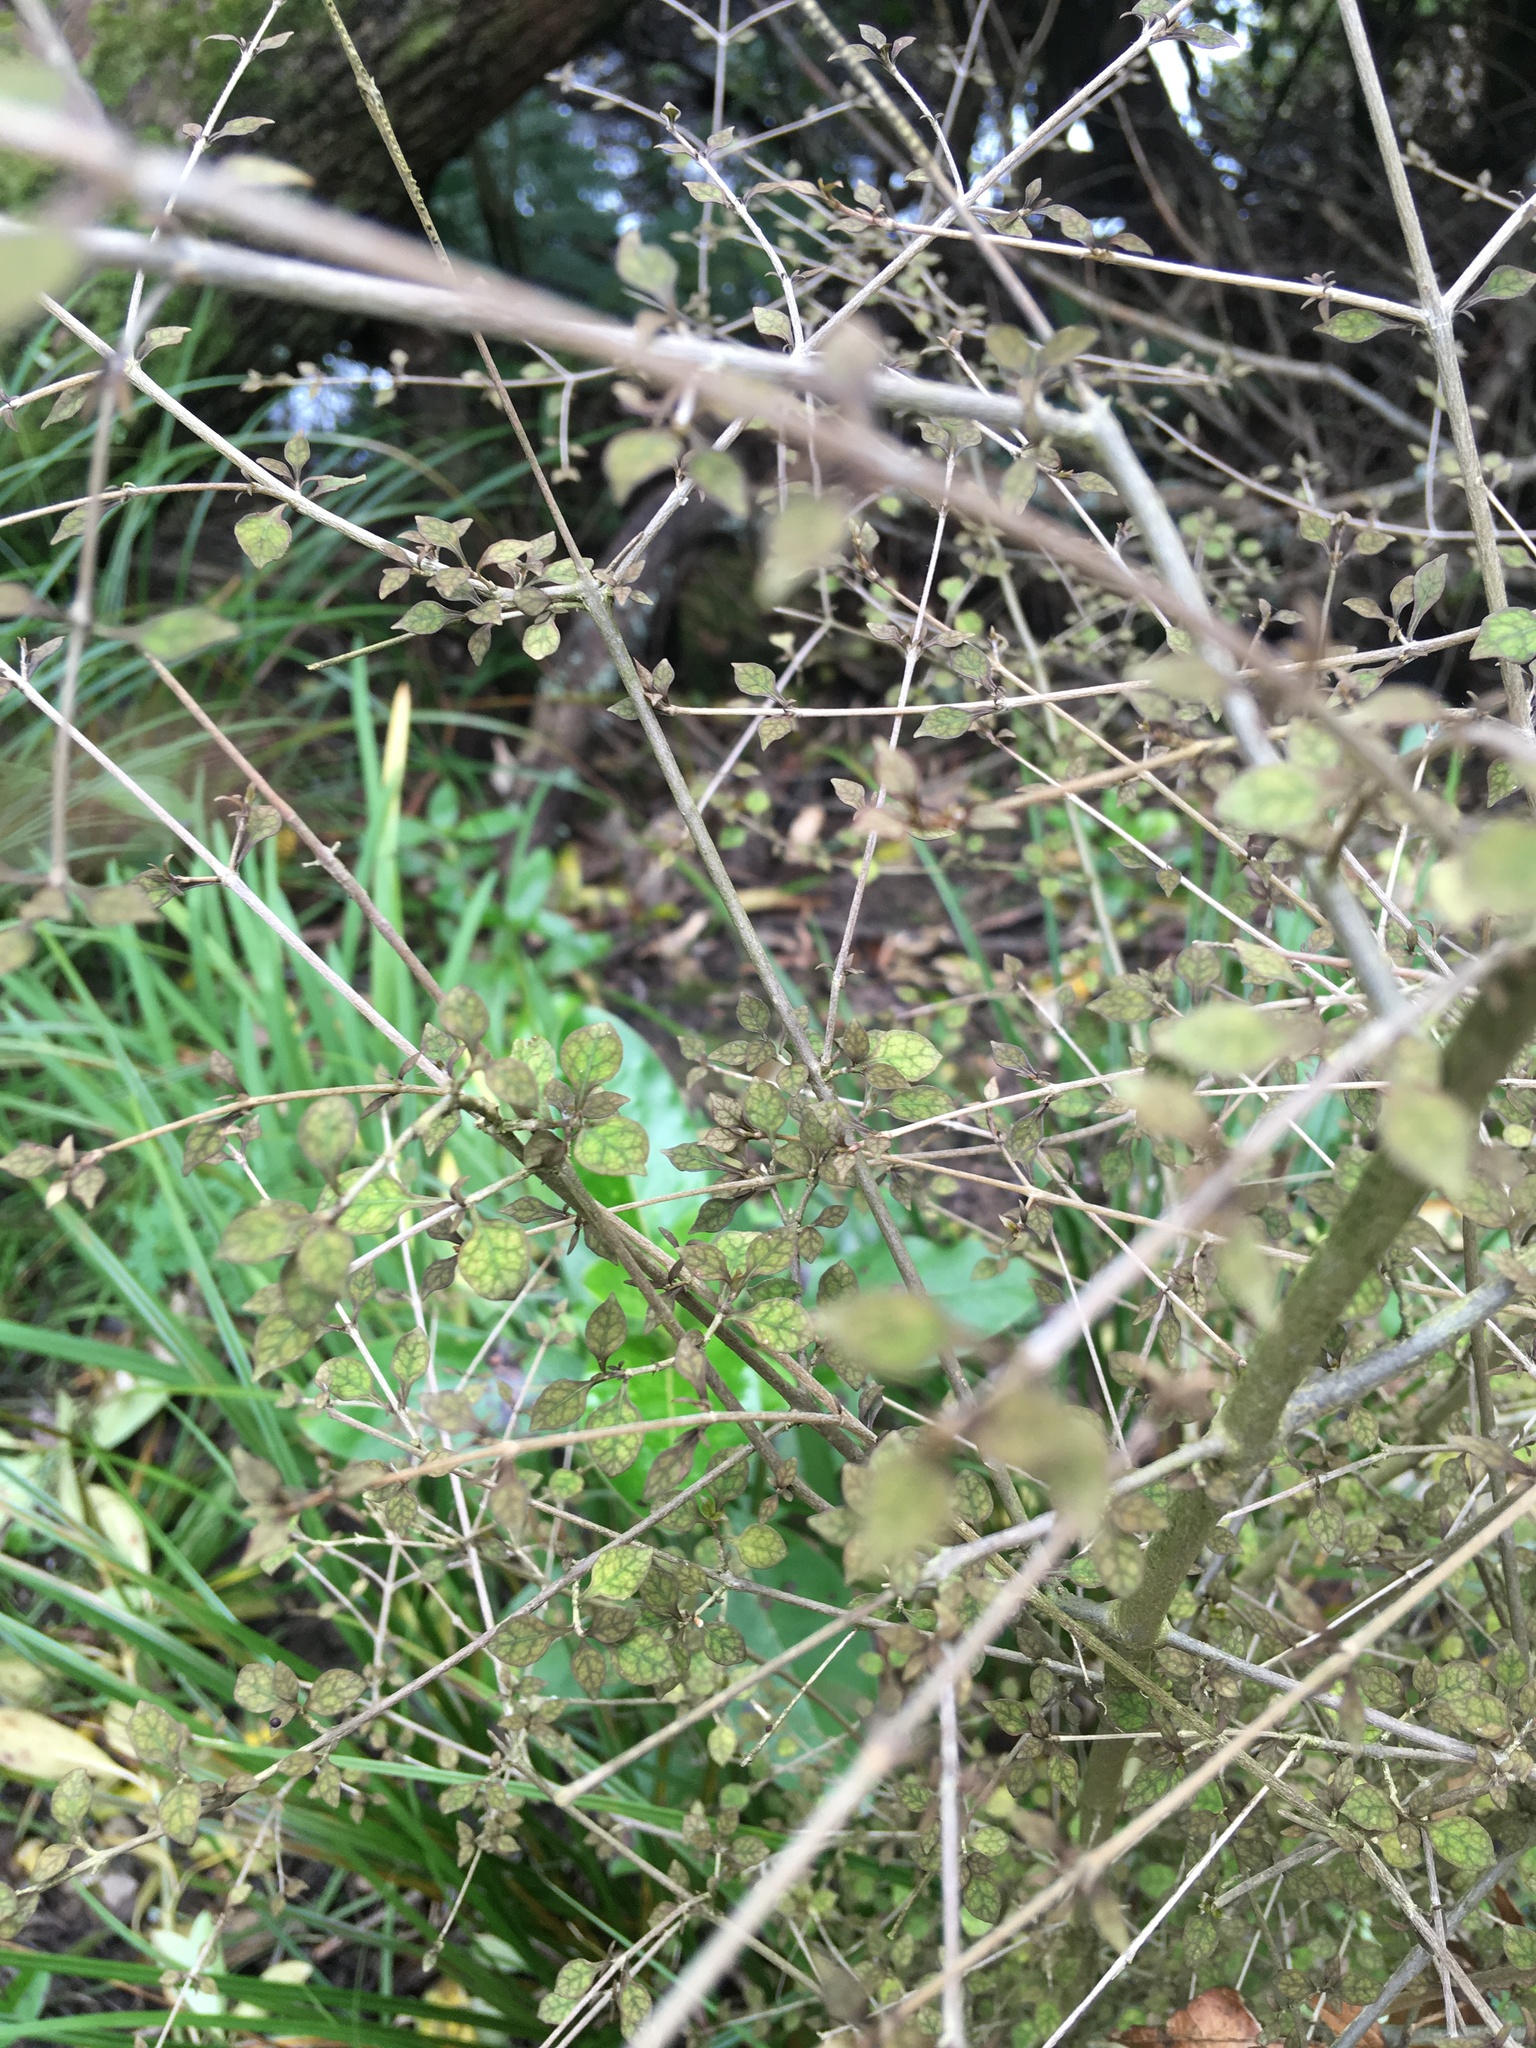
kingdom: Plantae
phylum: Tracheophyta
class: Magnoliopsida
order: Gentianales
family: Rubiaceae
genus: Coprosma
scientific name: Coprosma areolata
